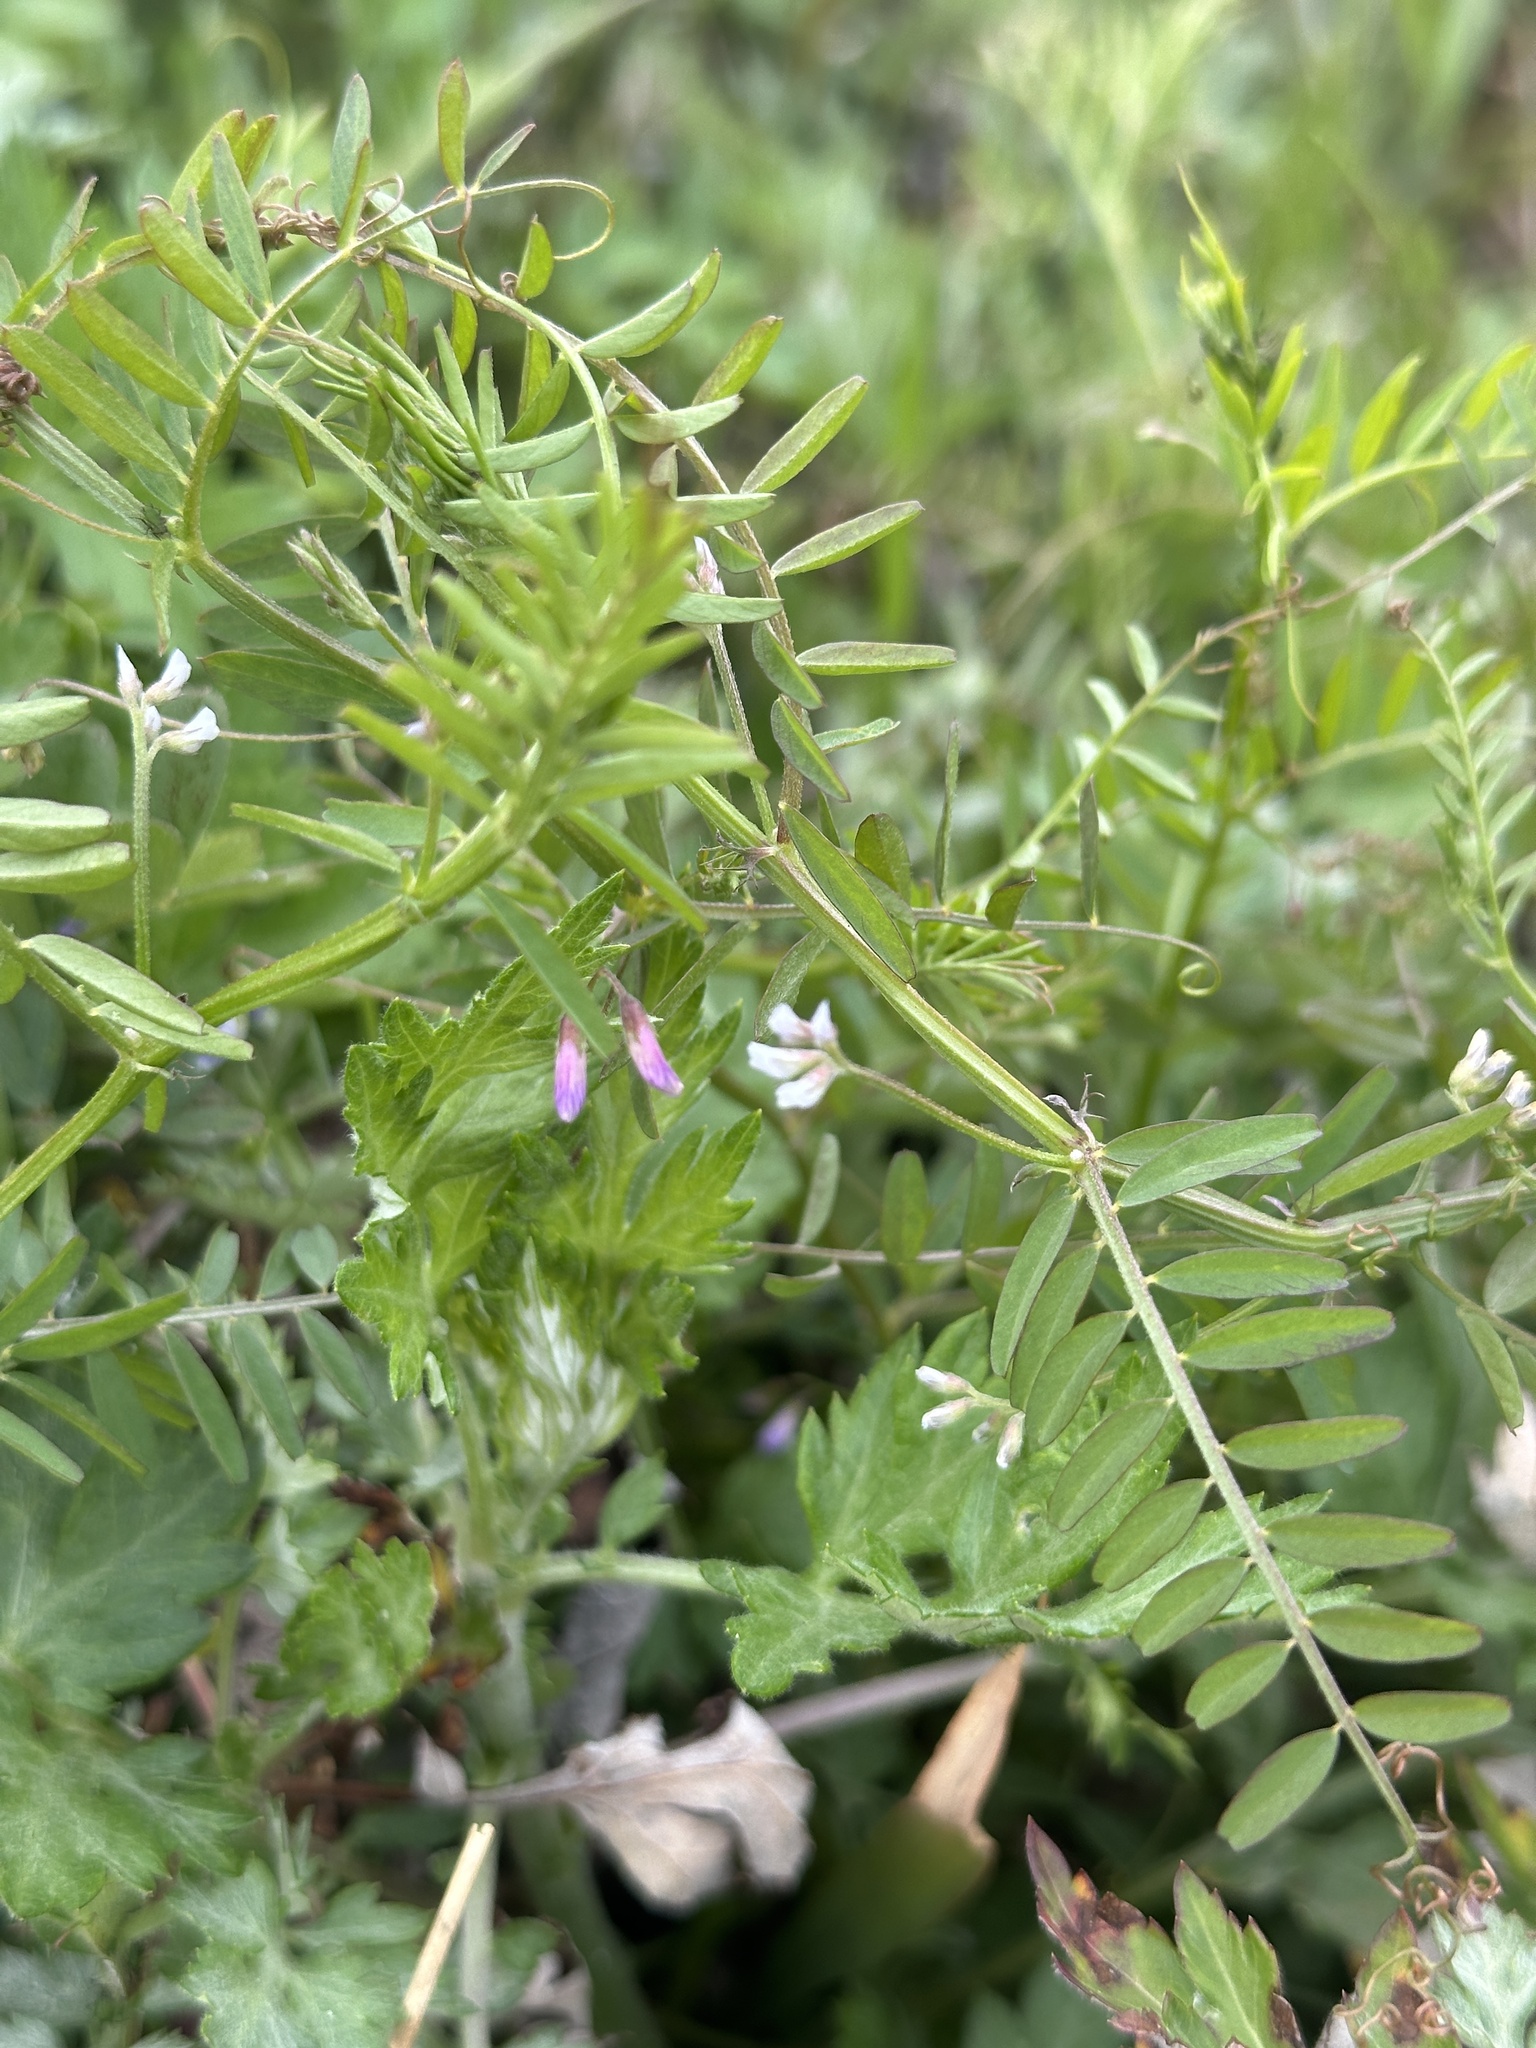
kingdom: Plantae
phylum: Tracheophyta
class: Magnoliopsida
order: Fabales
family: Fabaceae
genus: Vicia
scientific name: Vicia tetrasperma
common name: Smooth tare
